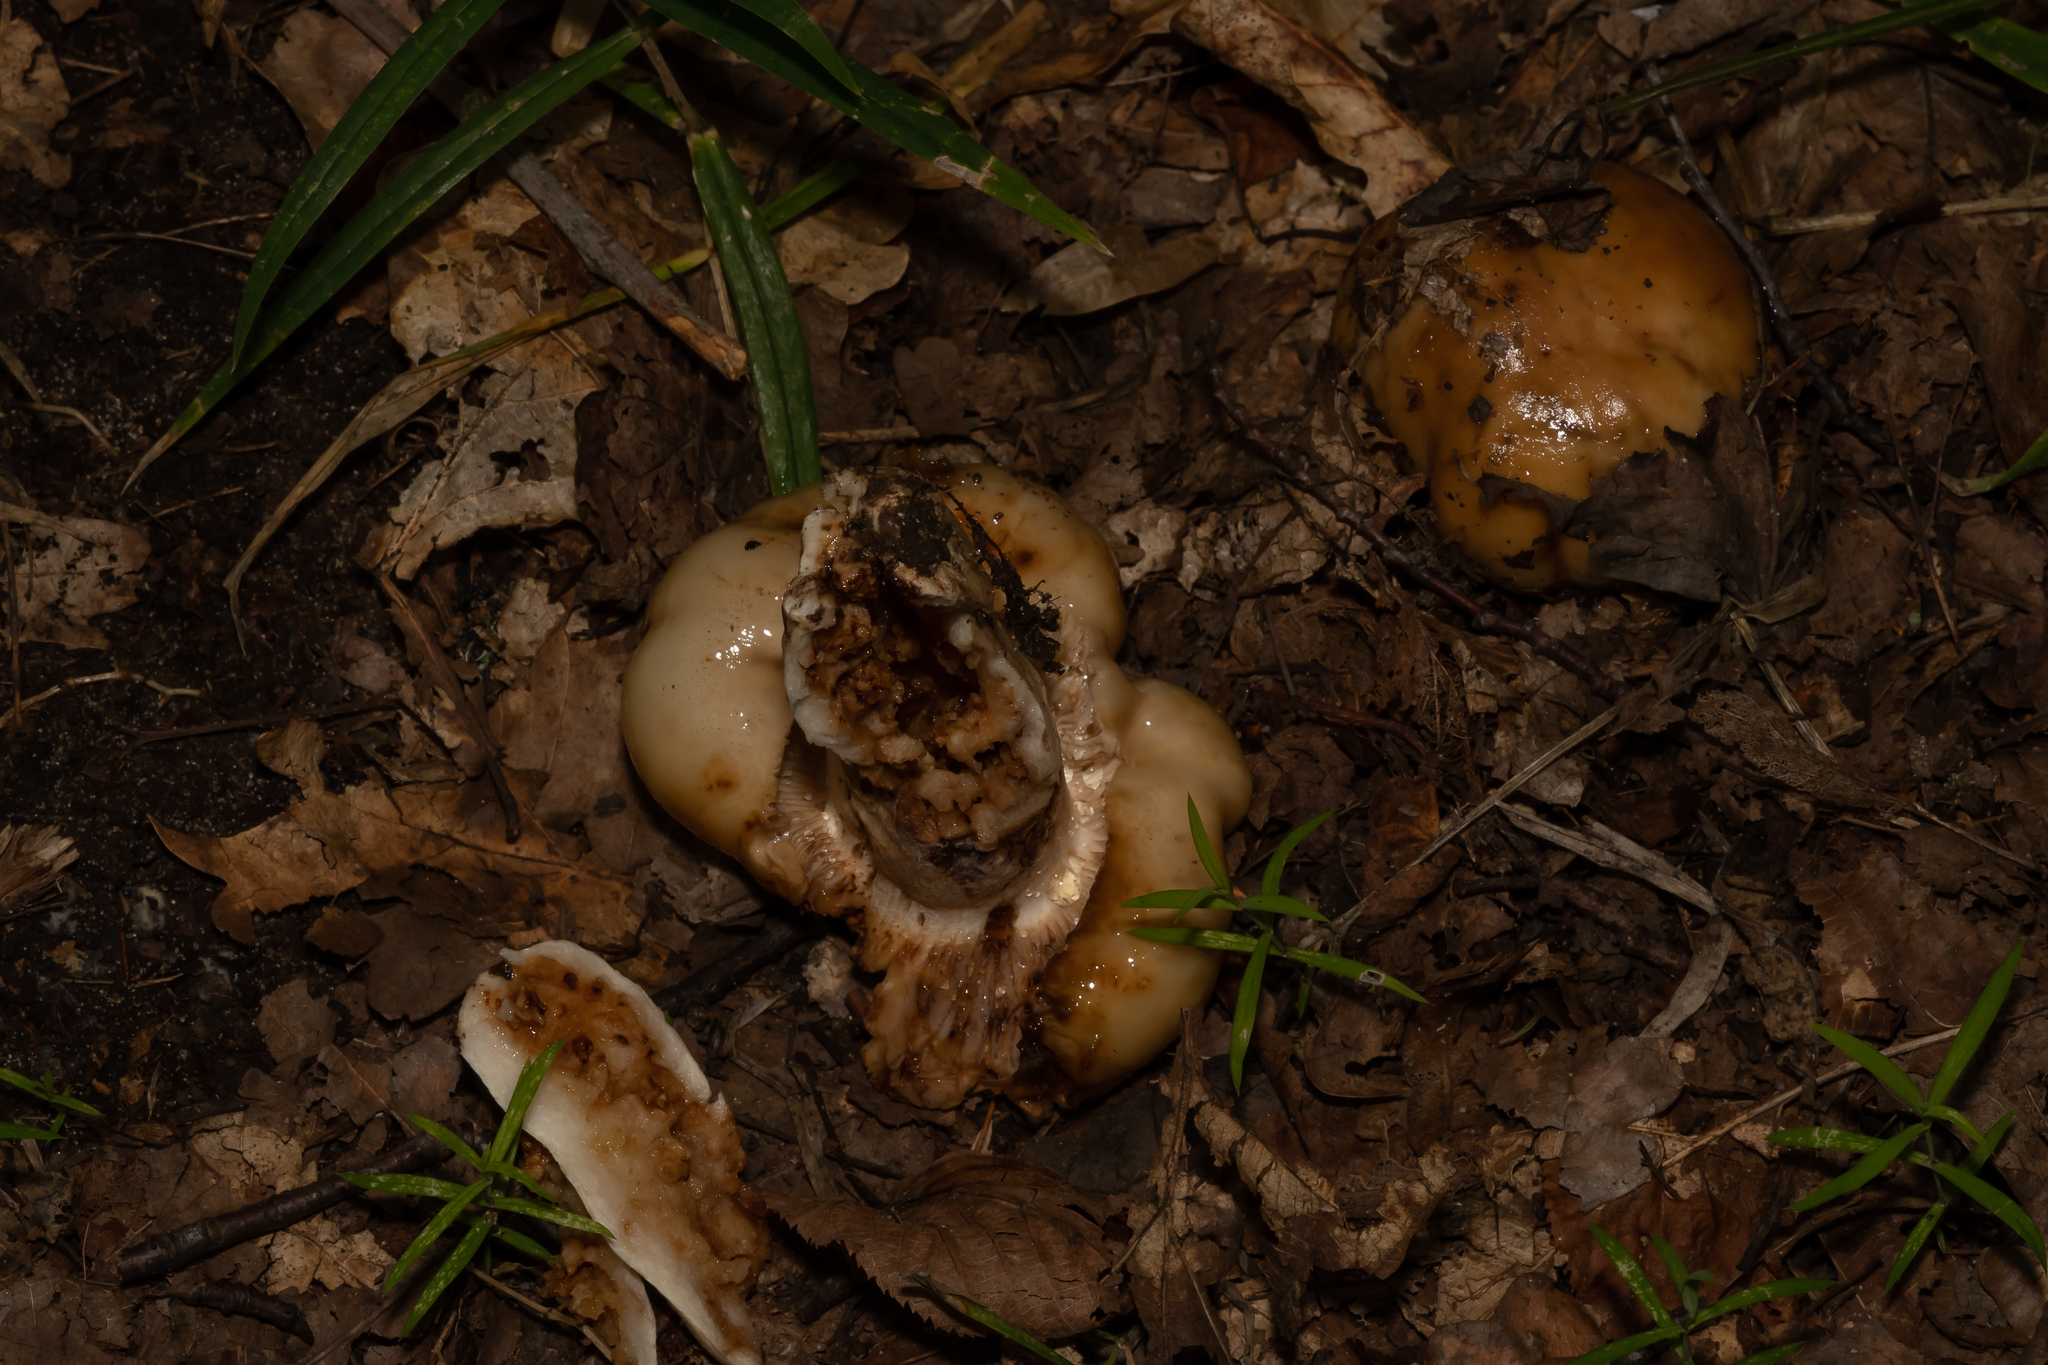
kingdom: Fungi
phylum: Basidiomycota
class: Agaricomycetes
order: Russulales
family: Russulaceae
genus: Russula
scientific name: Russula foetens
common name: Foetid russula
